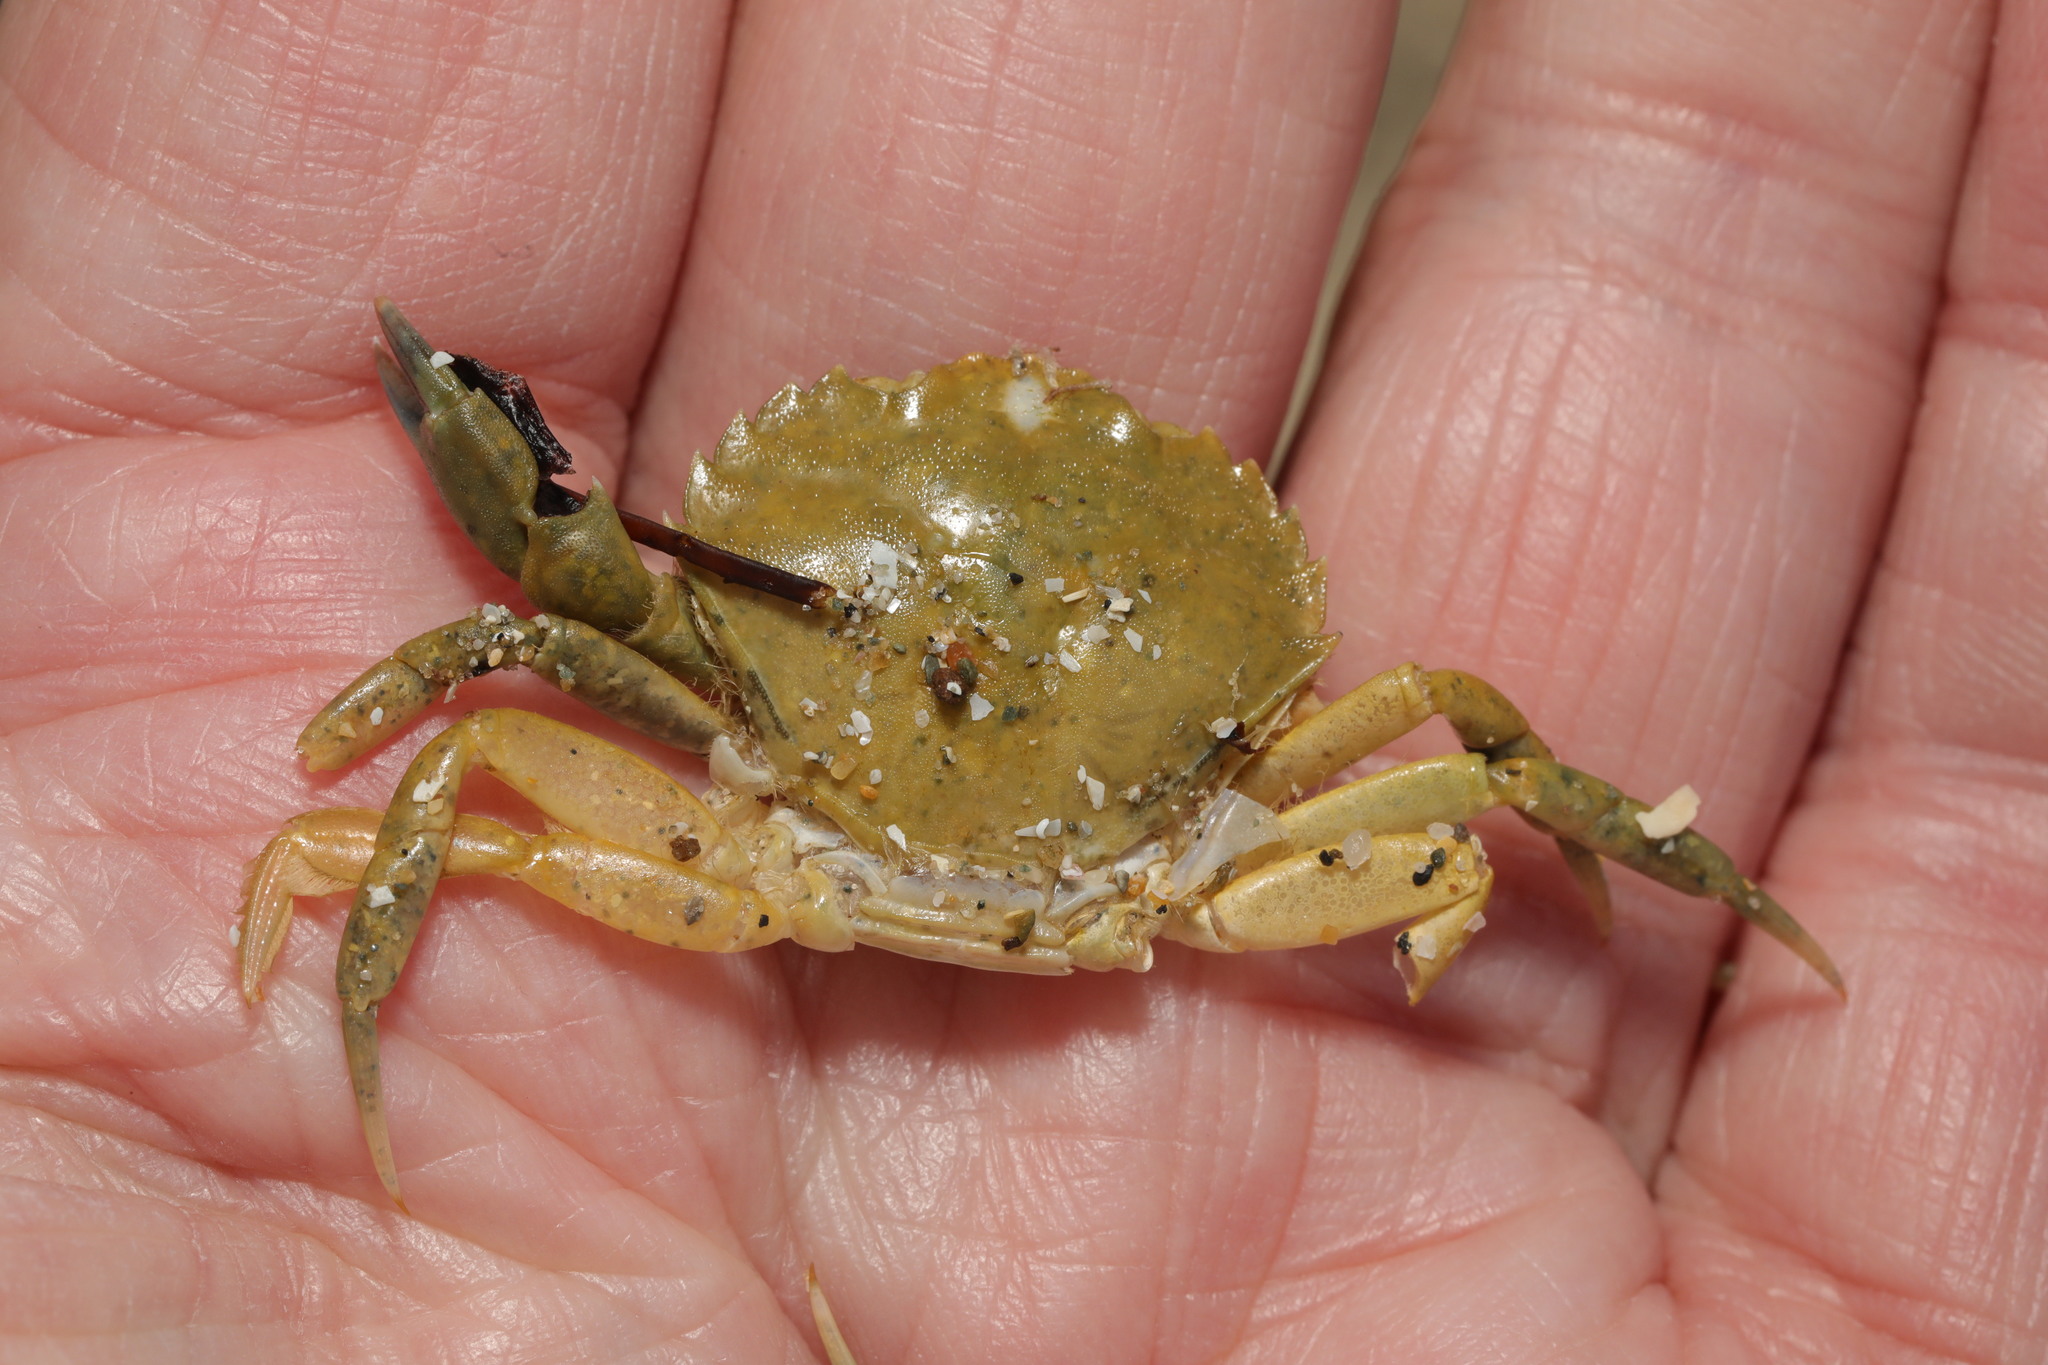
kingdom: Animalia
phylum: Arthropoda
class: Malacostraca
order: Decapoda
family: Carcinidae
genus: Carcinus
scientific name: Carcinus maenas
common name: European green crab
